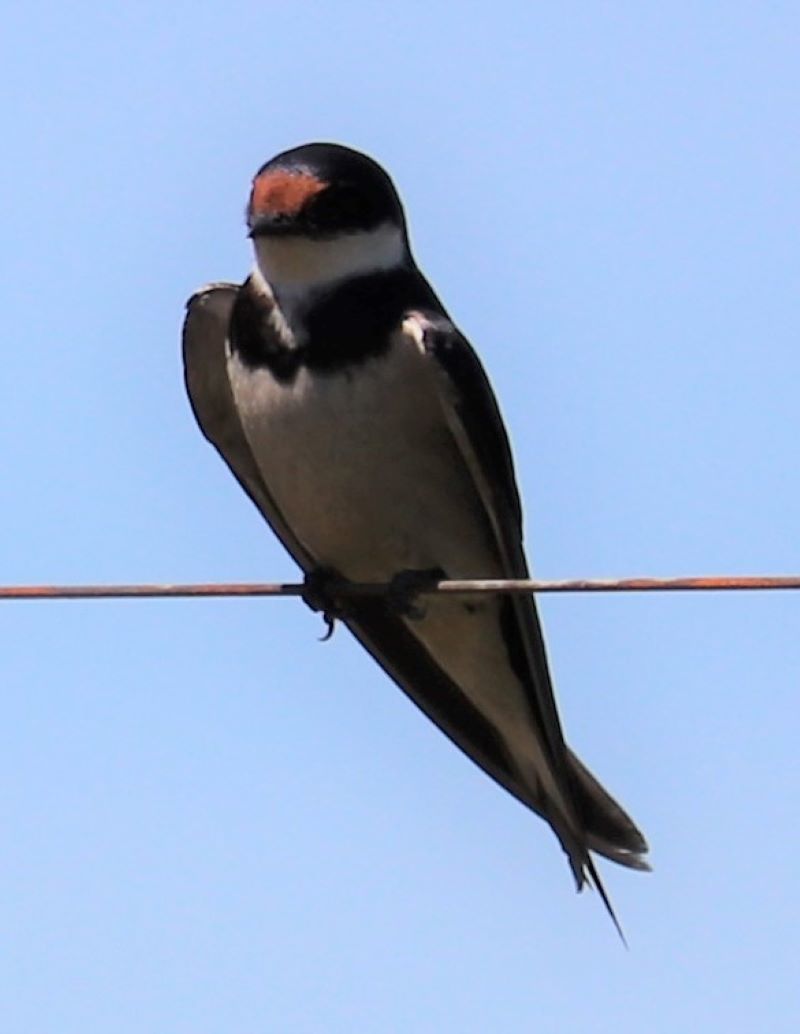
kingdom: Animalia
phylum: Chordata
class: Aves
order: Passeriformes
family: Hirundinidae
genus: Hirundo
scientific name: Hirundo albigularis
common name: White-throated swallow
